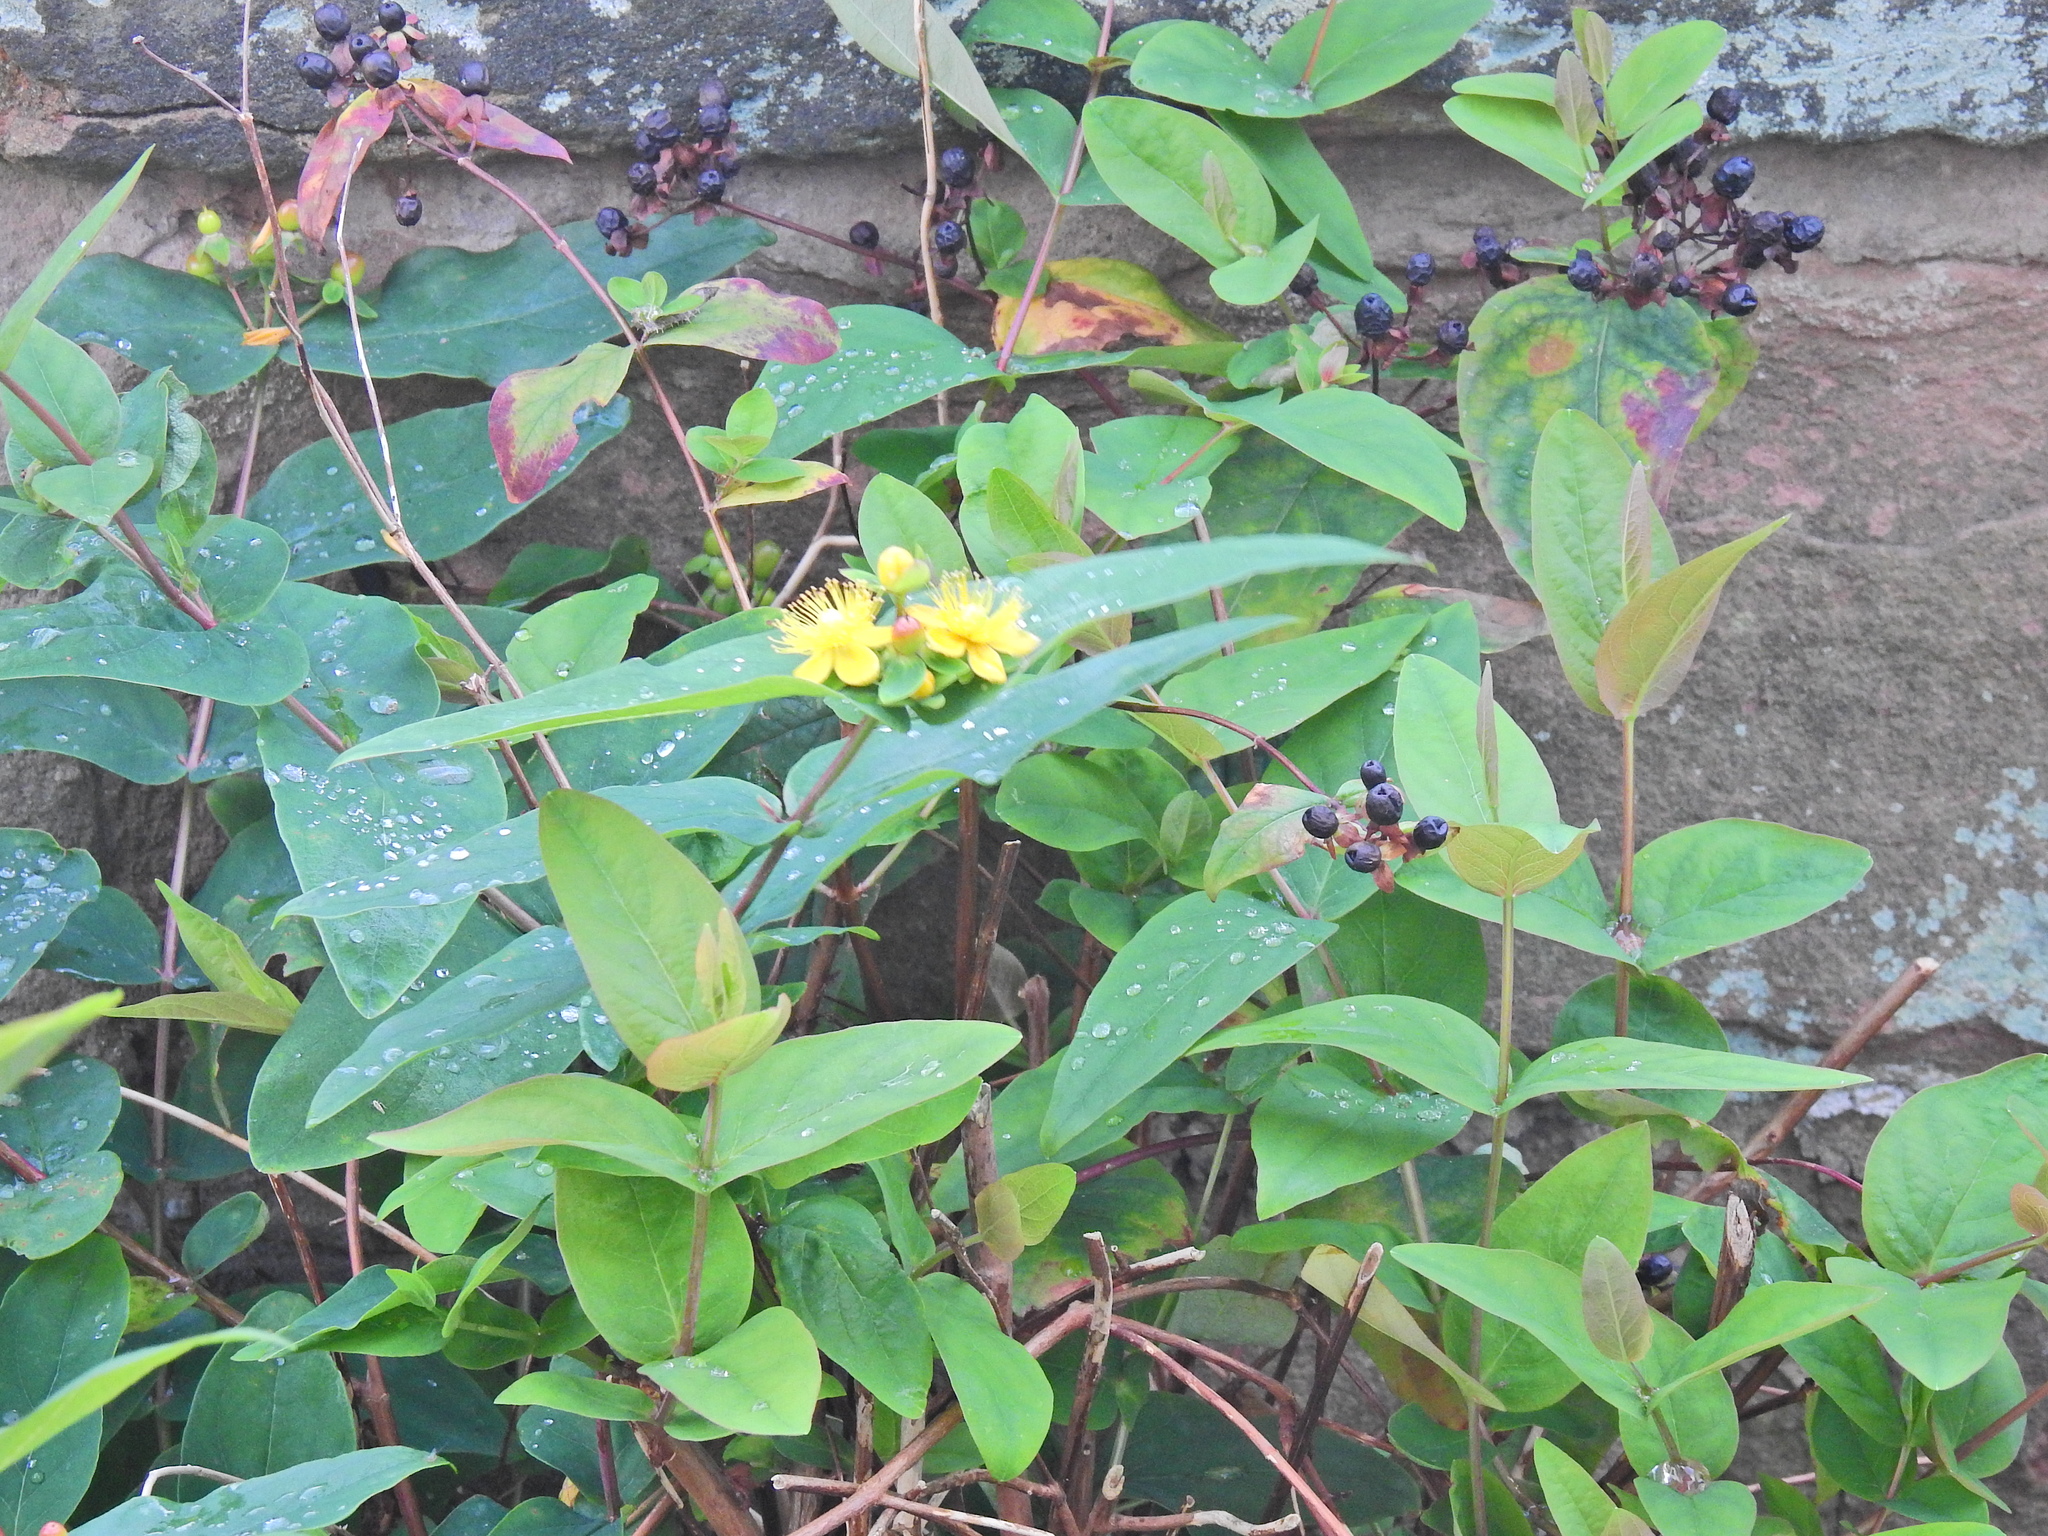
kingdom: Plantae
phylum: Tracheophyta
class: Magnoliopsida
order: Malpighiales
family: Hypericaceae
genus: Hypericum
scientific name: Hypericum androsaemum
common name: Sweet-amber
